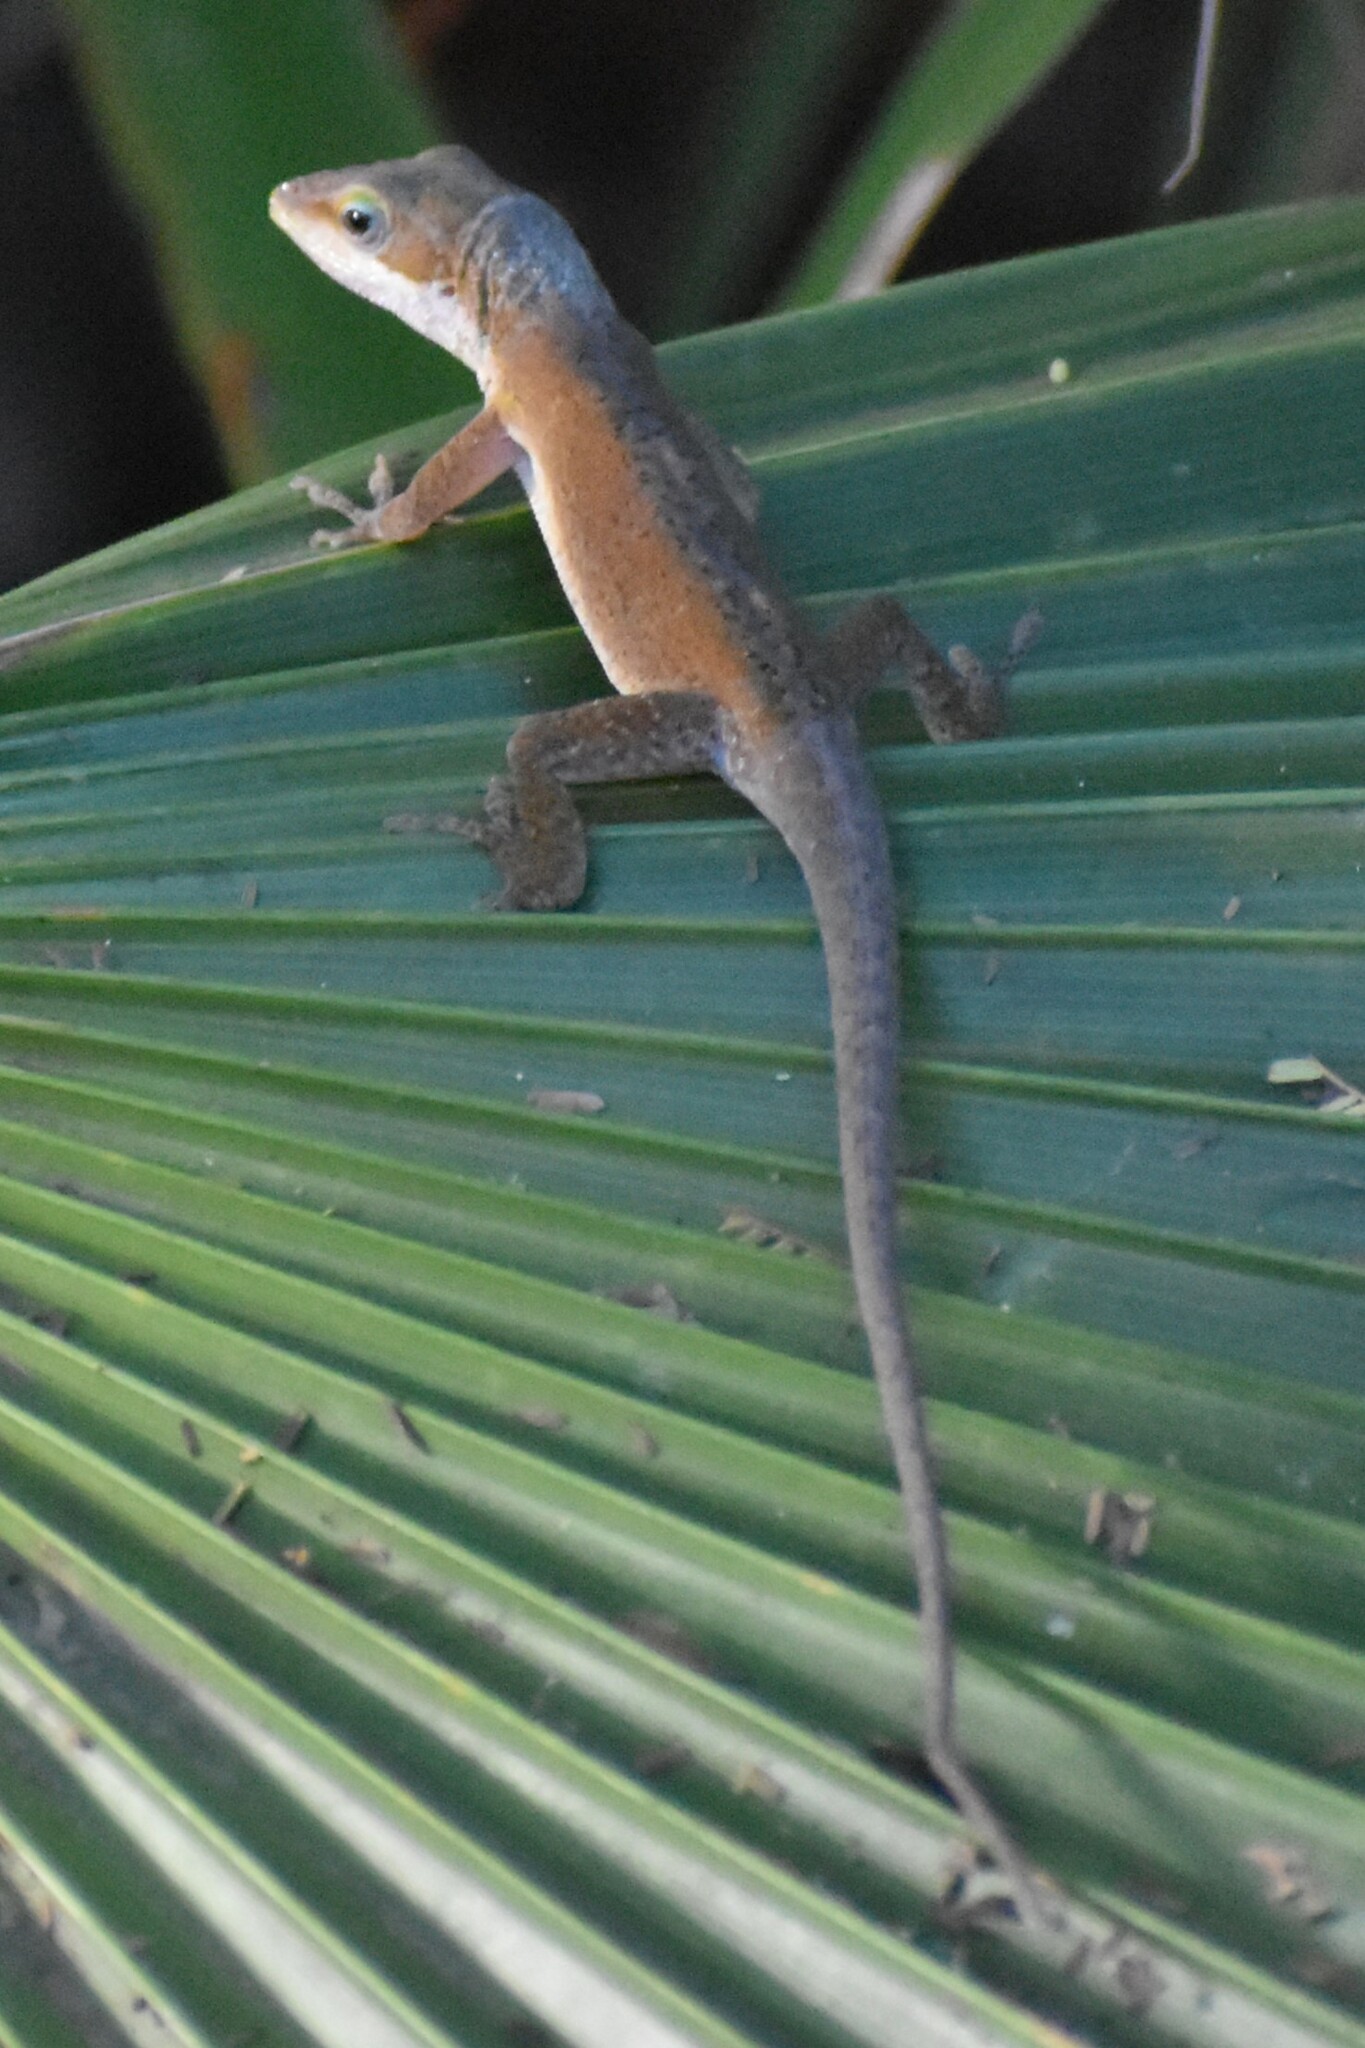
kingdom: Animalia
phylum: Chordata
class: Squamata
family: Dactyloidae
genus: Anolis
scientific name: Anolis carolinensis
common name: Green anole
